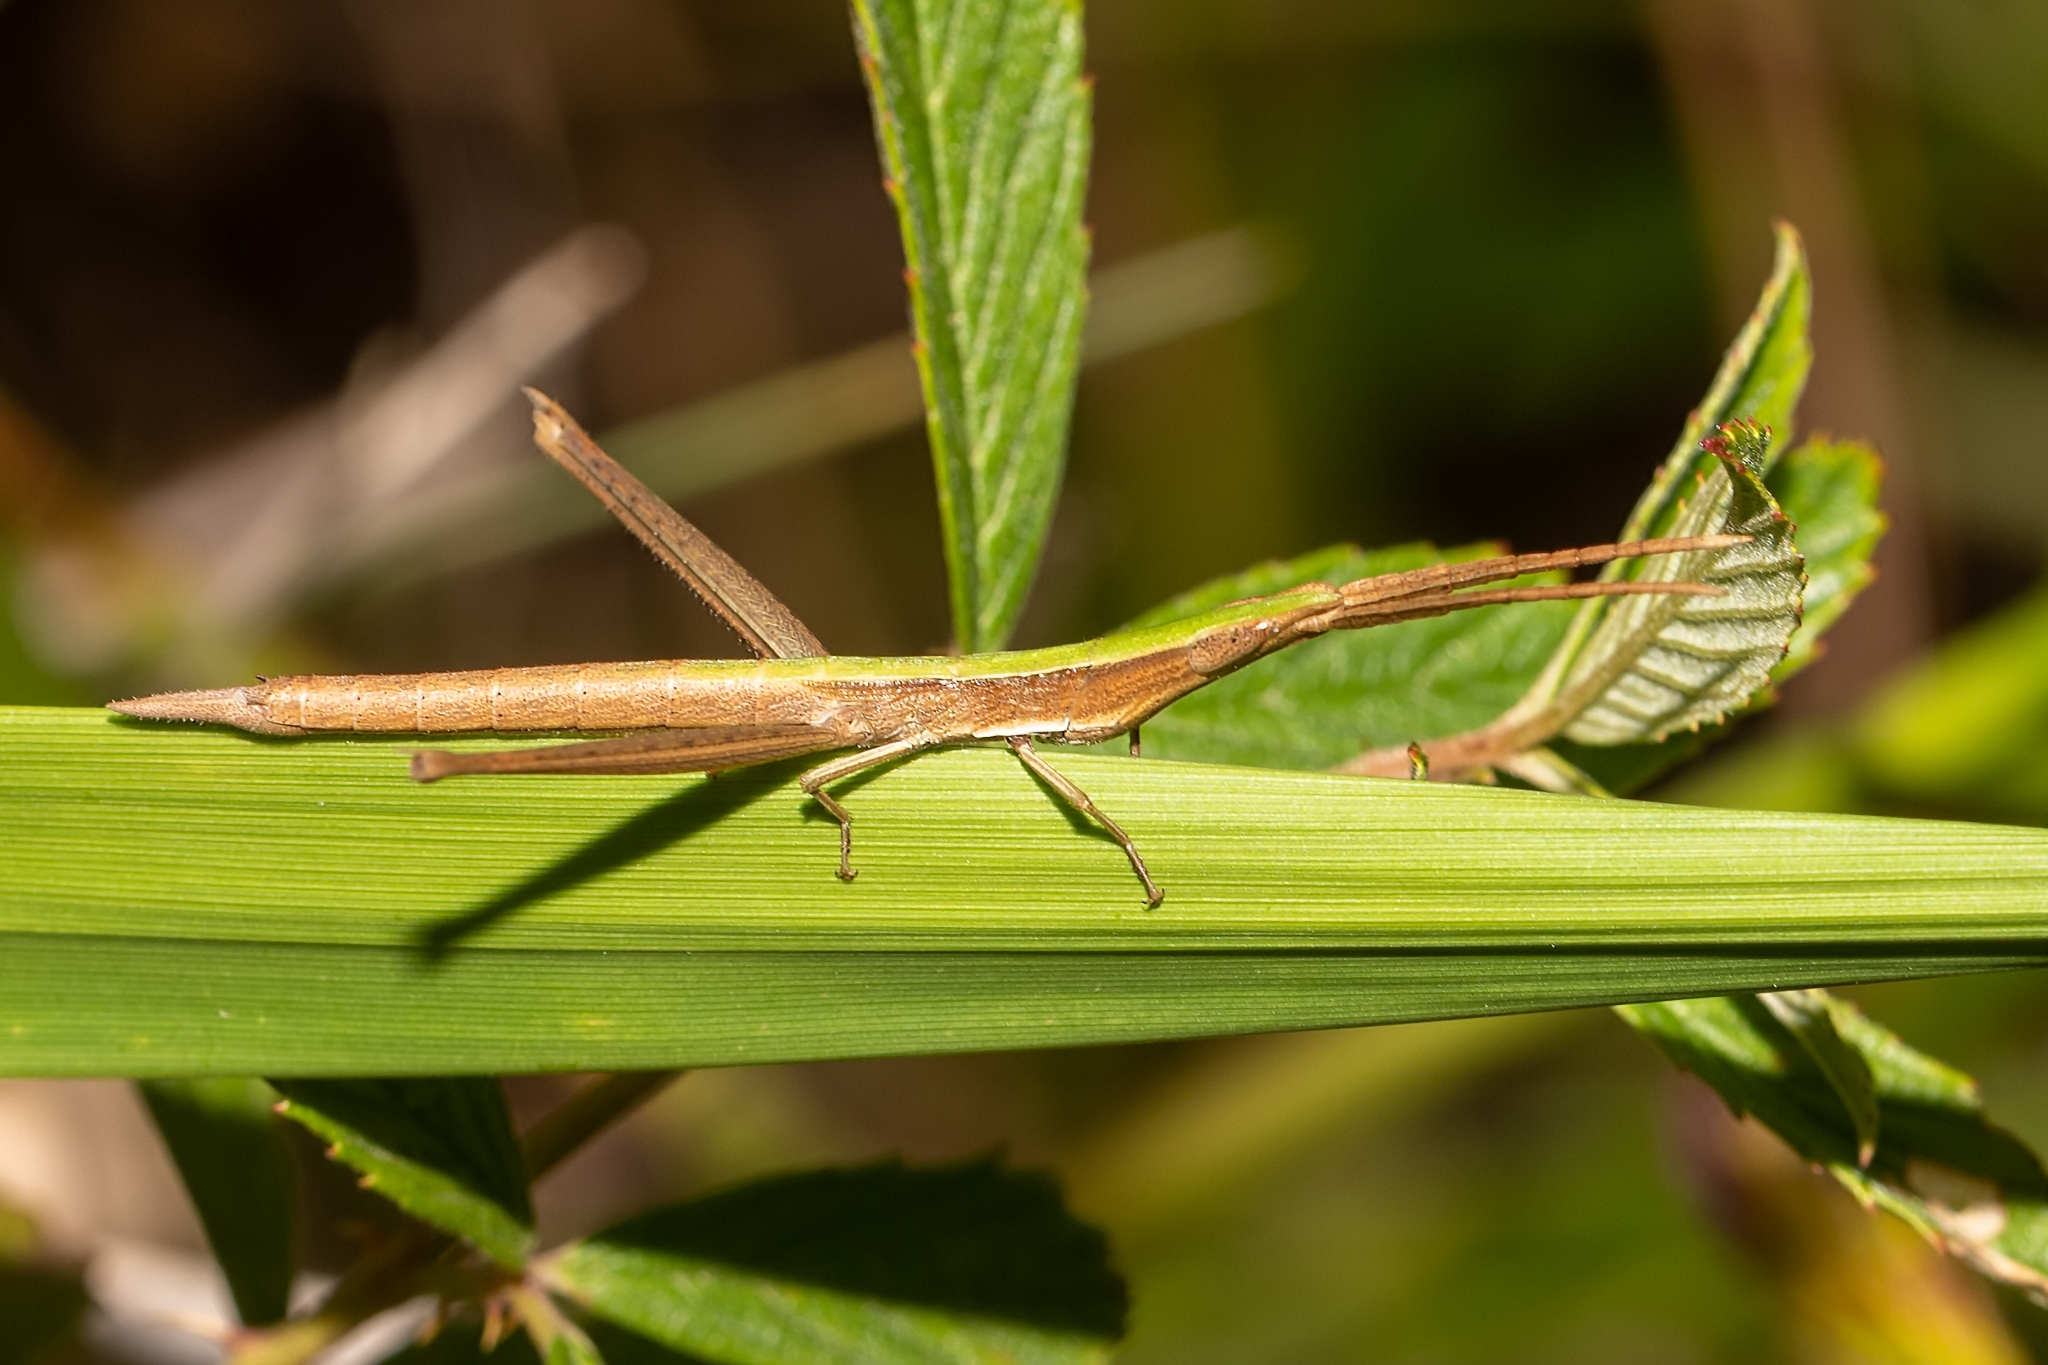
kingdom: Animalia
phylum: Arthropoda
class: Insecta
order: Orthoptera
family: Acrididae
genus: Achurum
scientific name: Achurum carinatum
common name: Long-headed toothpick grasshopper
